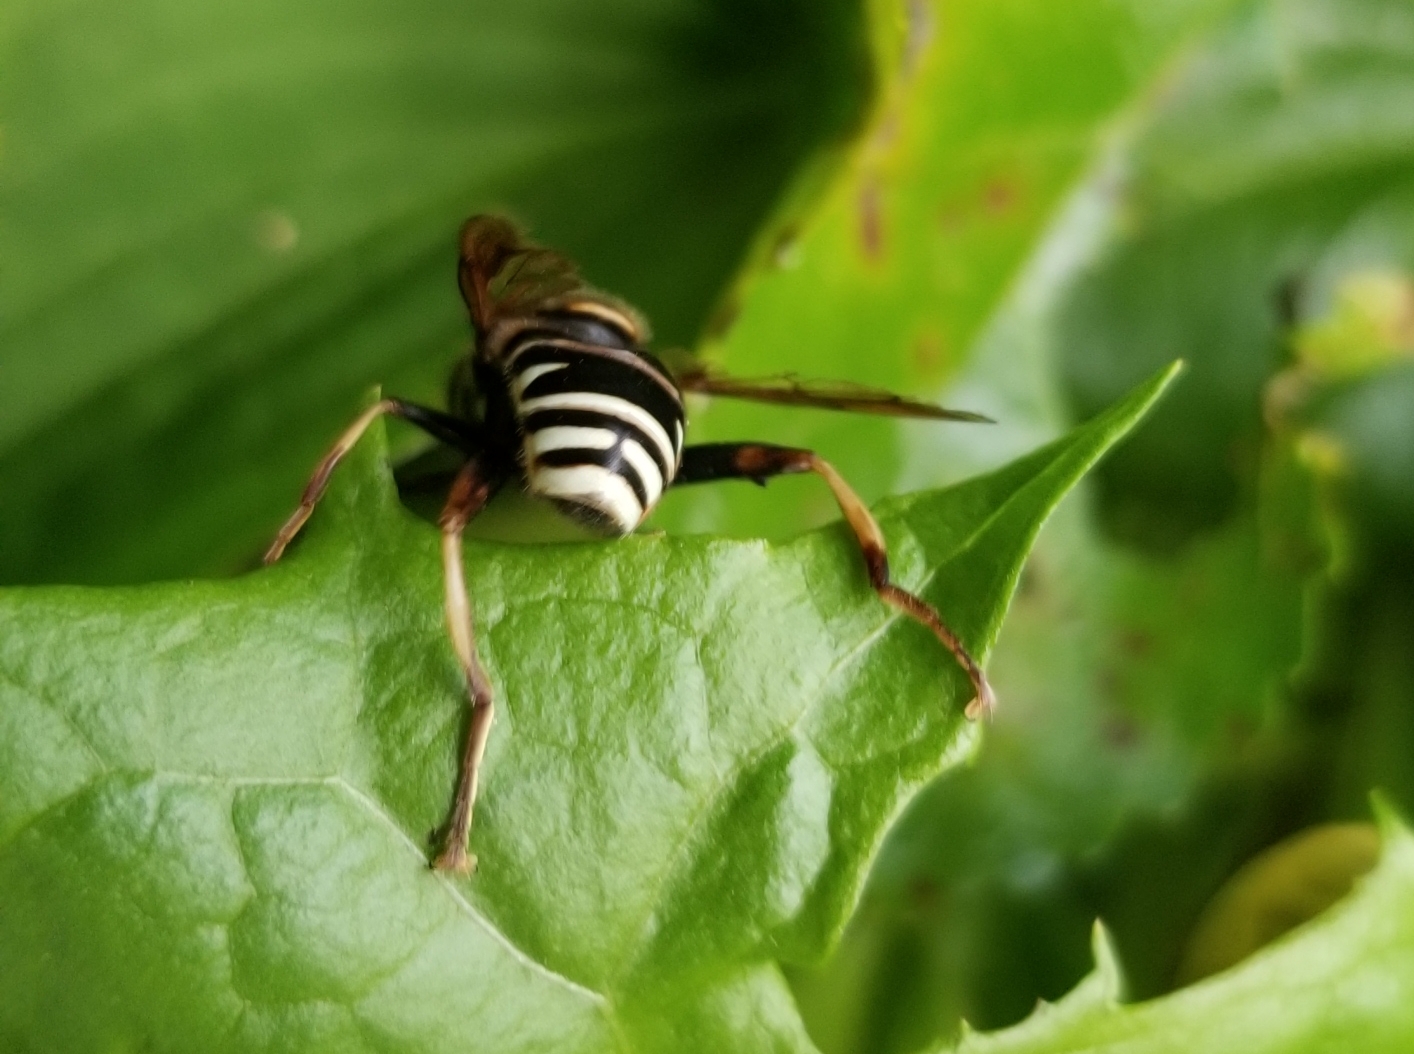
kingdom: Animalia
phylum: Arthropoda
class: Insecta
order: Diptera
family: Syrphidae
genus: Spilomyia
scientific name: Spilomyia fusca
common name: Bald-faced hornet fly
